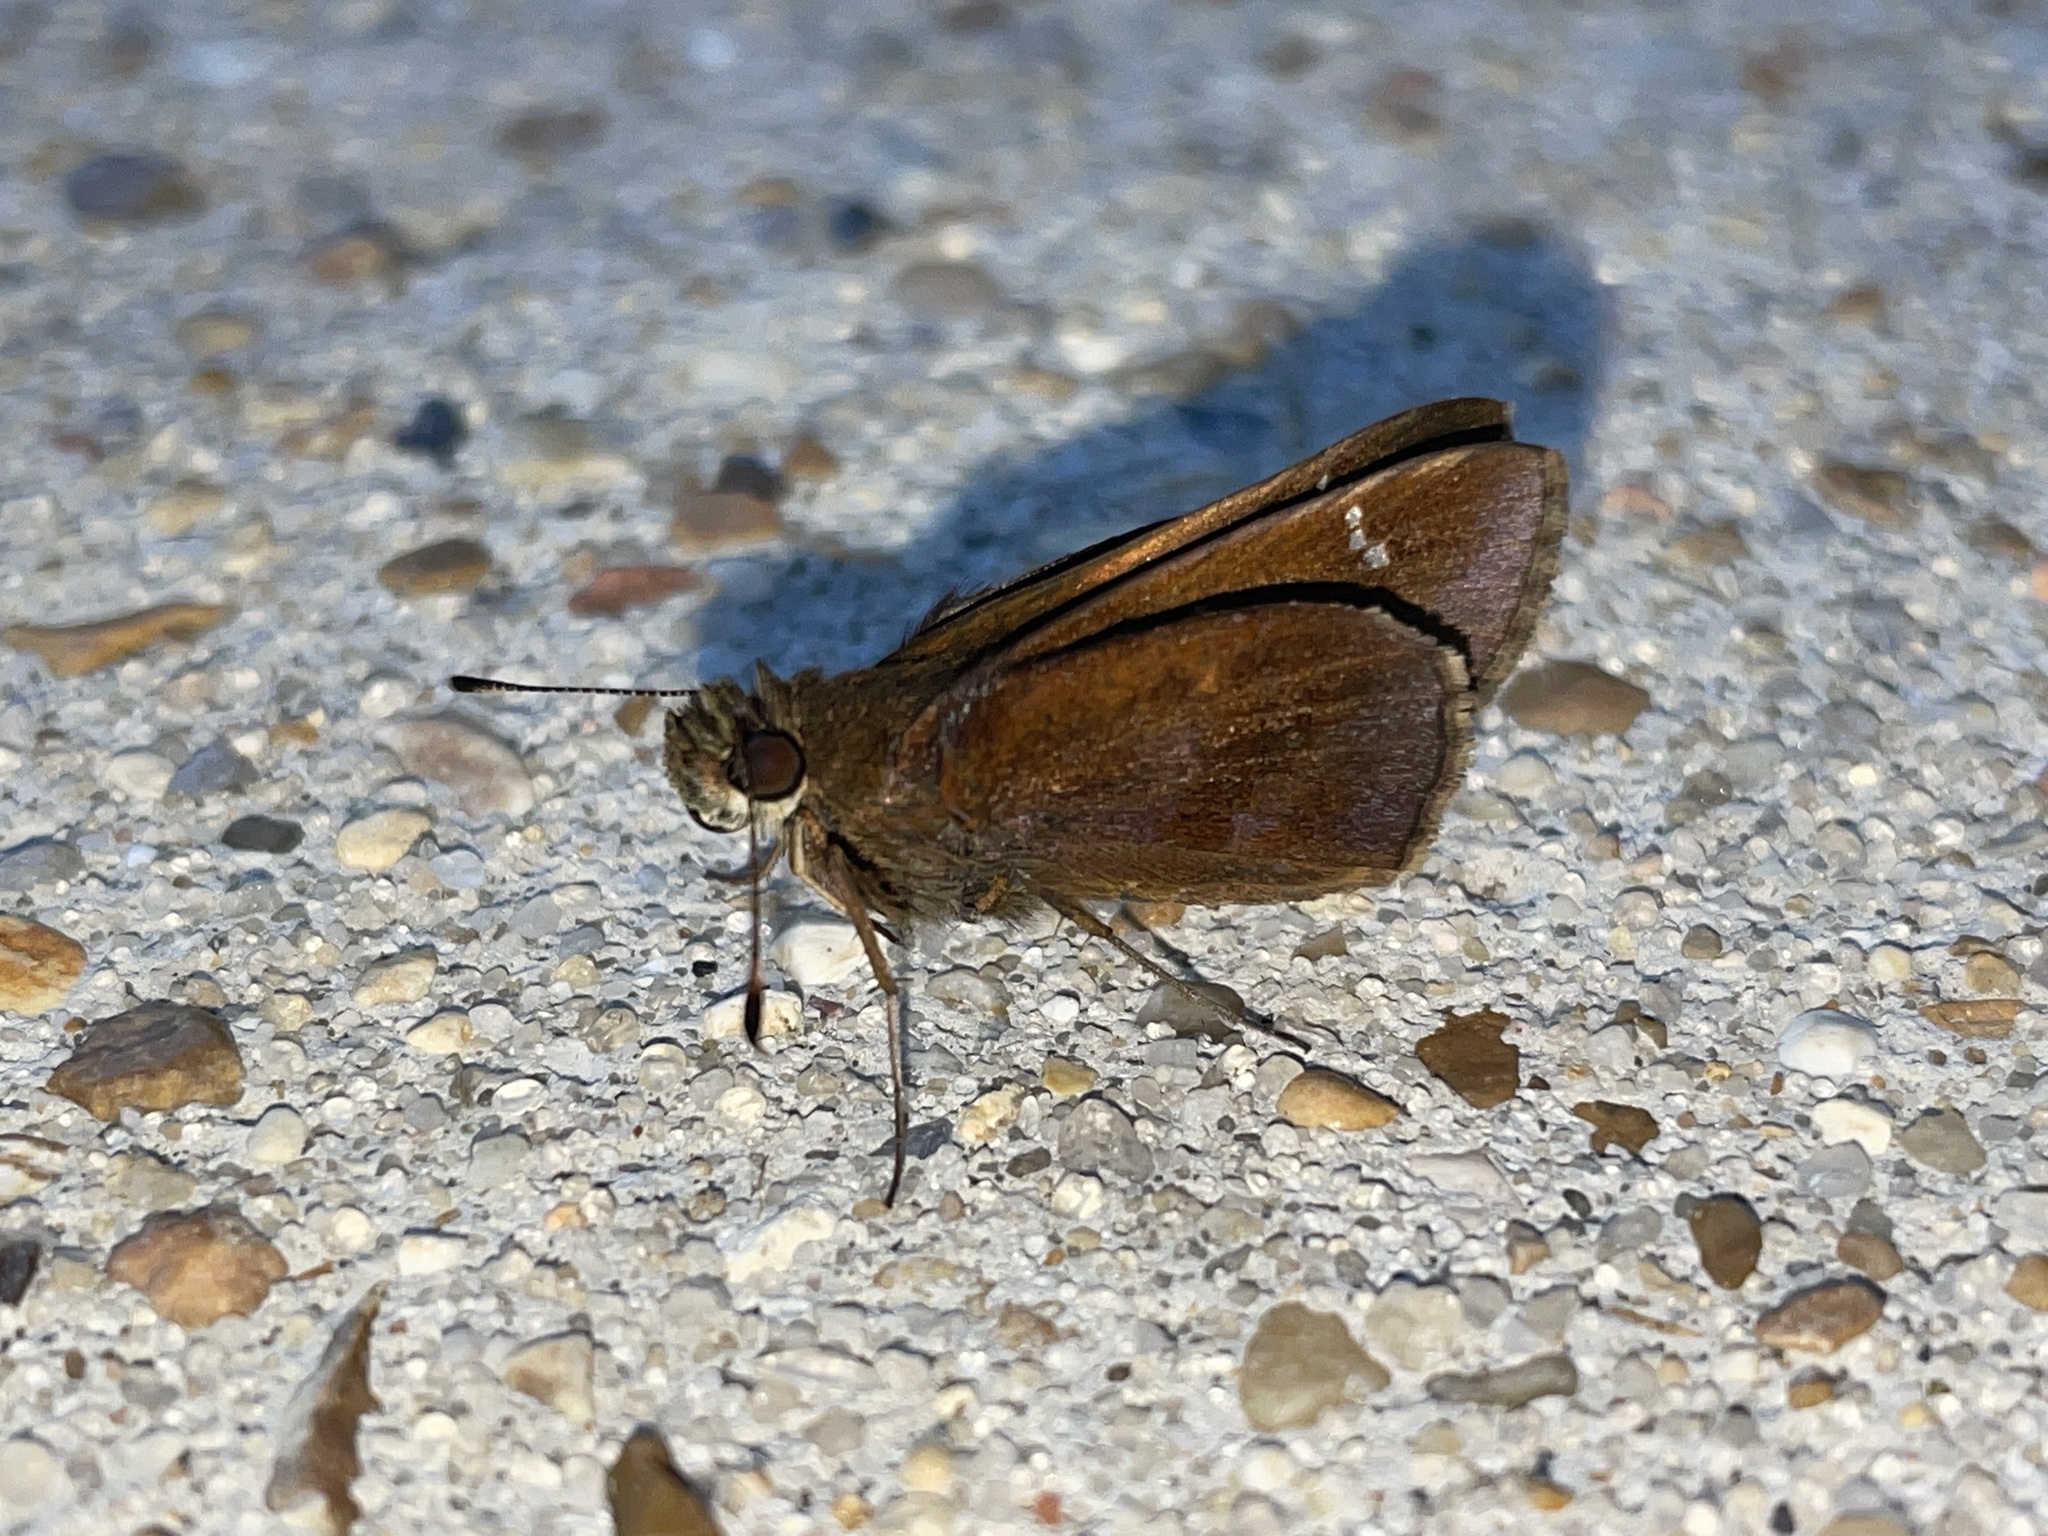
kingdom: Animalia
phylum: Arthropoda
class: Insecta
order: Lepidoptera
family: Hesperiidae
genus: Lerema
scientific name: Lerema accius
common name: Clouded skipper
